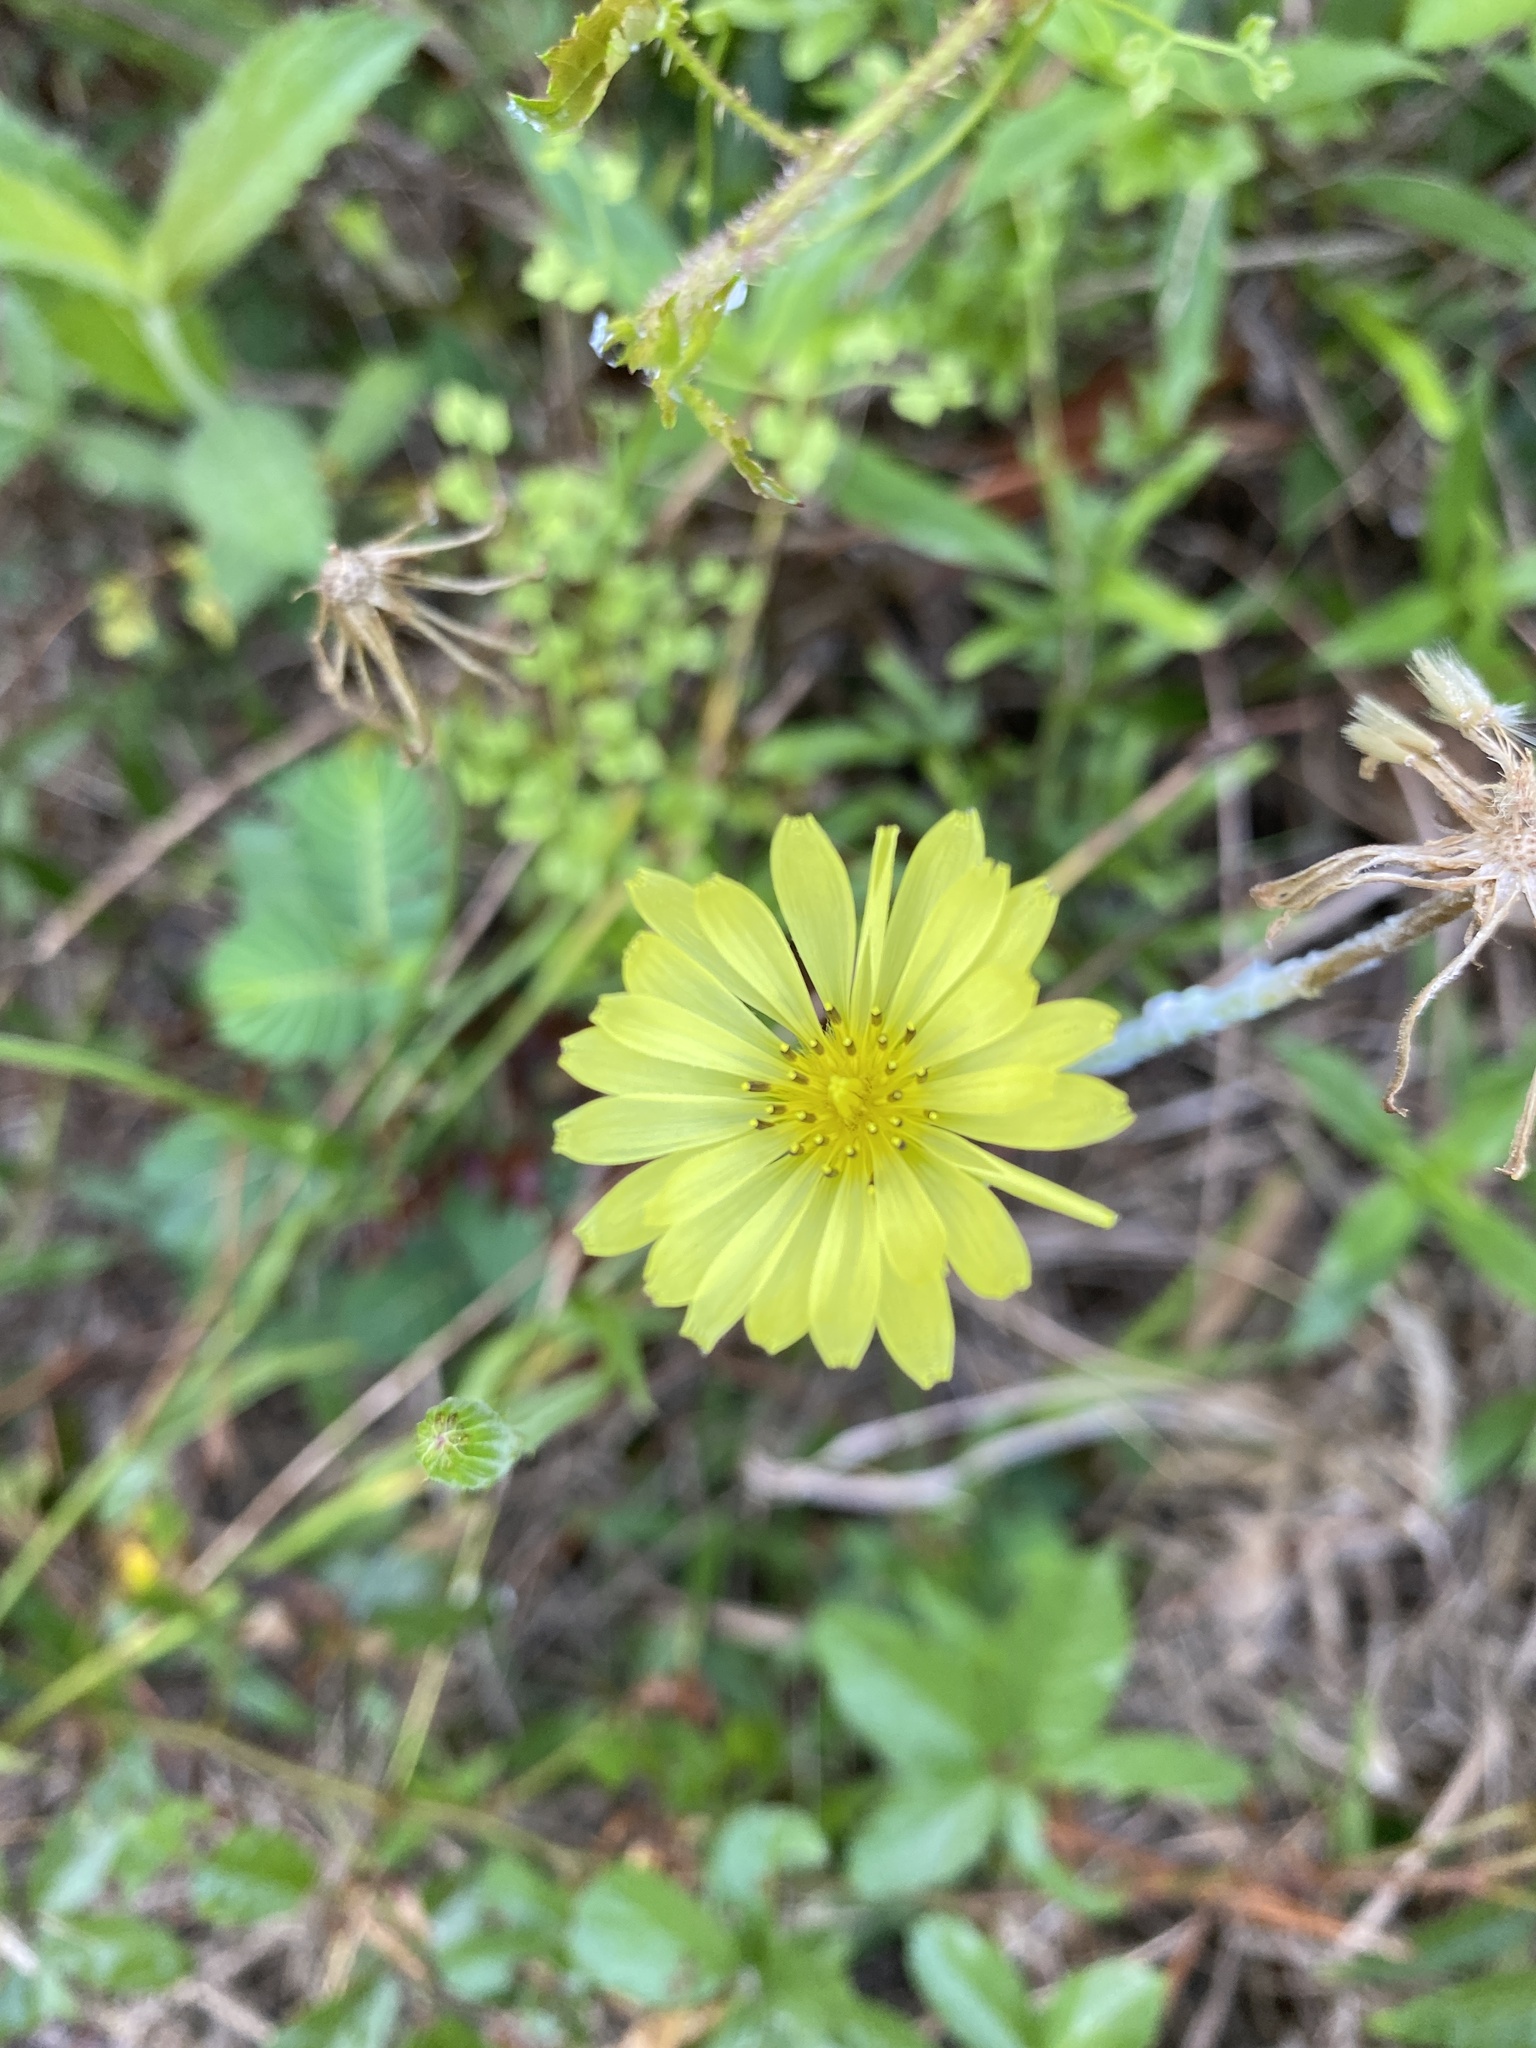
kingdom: Plantae
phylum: Tracheophyta
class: Magnoliopsida
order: Asterales
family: Asteraceae
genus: Pyrrhopappus
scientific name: Pyrrhopappus carolinianus
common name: Carolina desert-chicory
